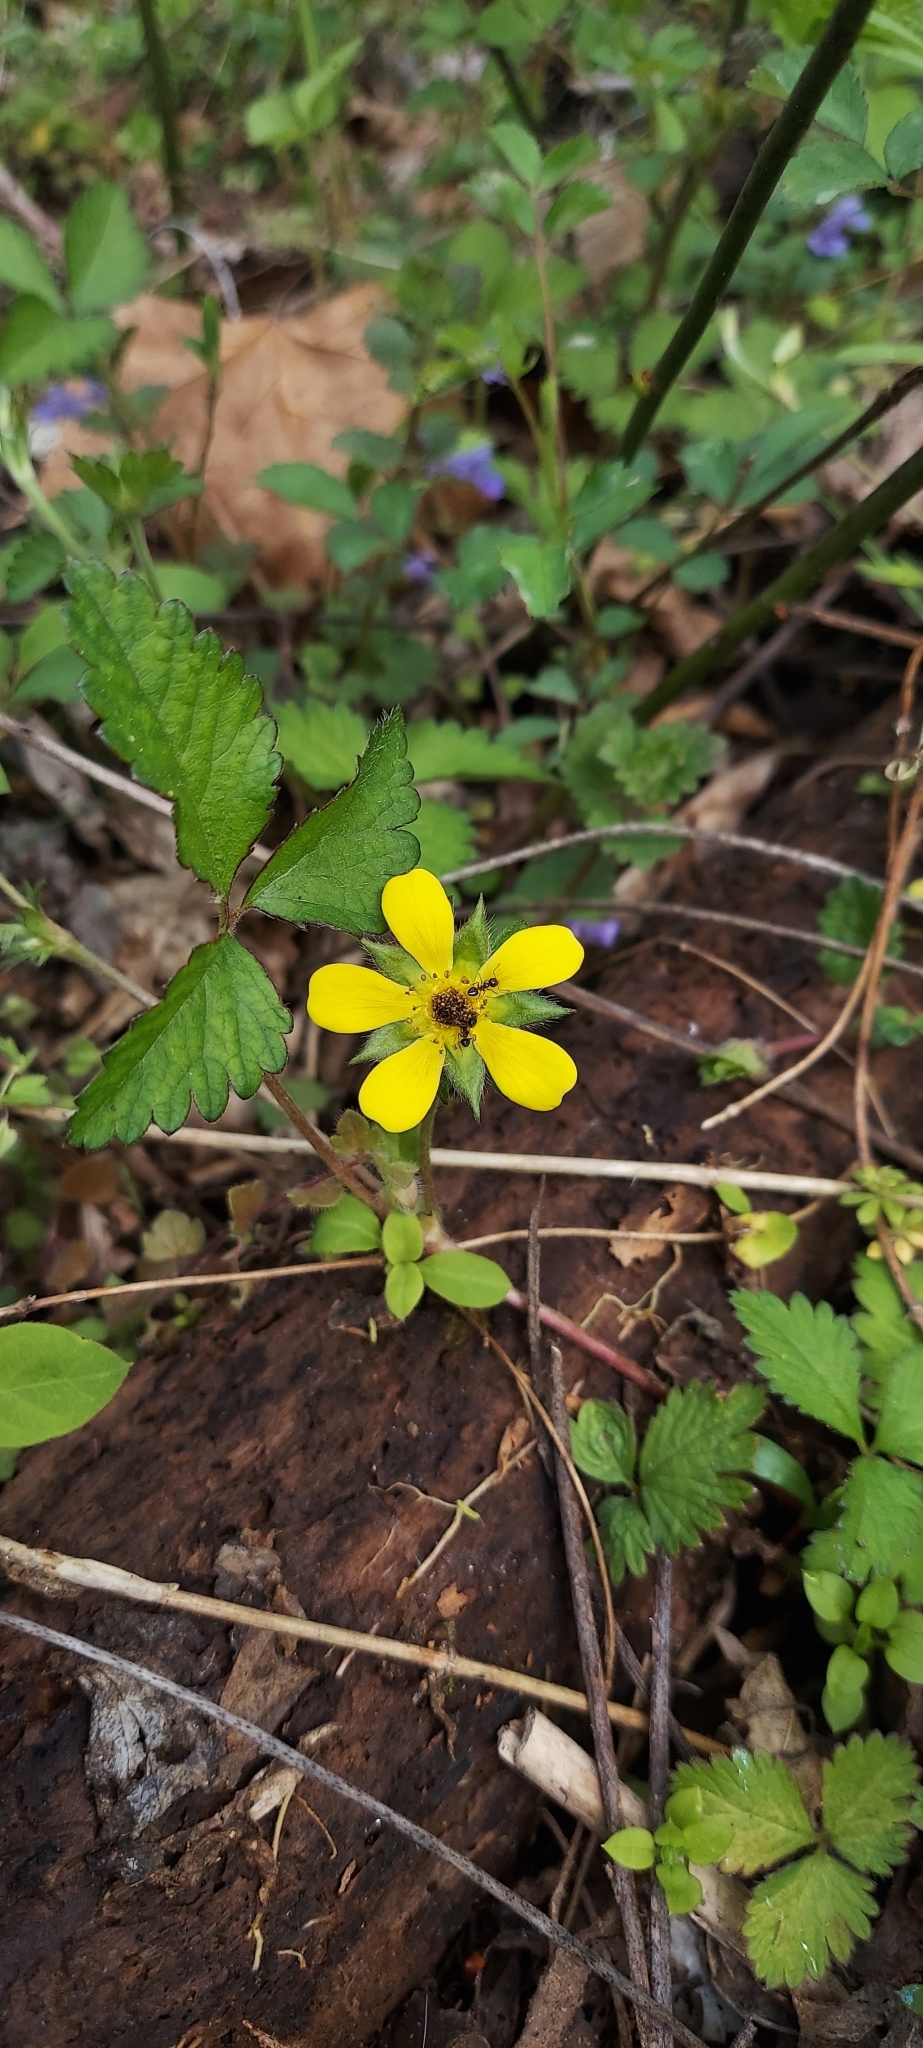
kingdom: Plantae
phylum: Tracheophyta
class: Magnoliopsida
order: Rosales
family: Rosaceae
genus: Potentilla
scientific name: Potentilla indica
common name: Yellow-flowered strawberry
